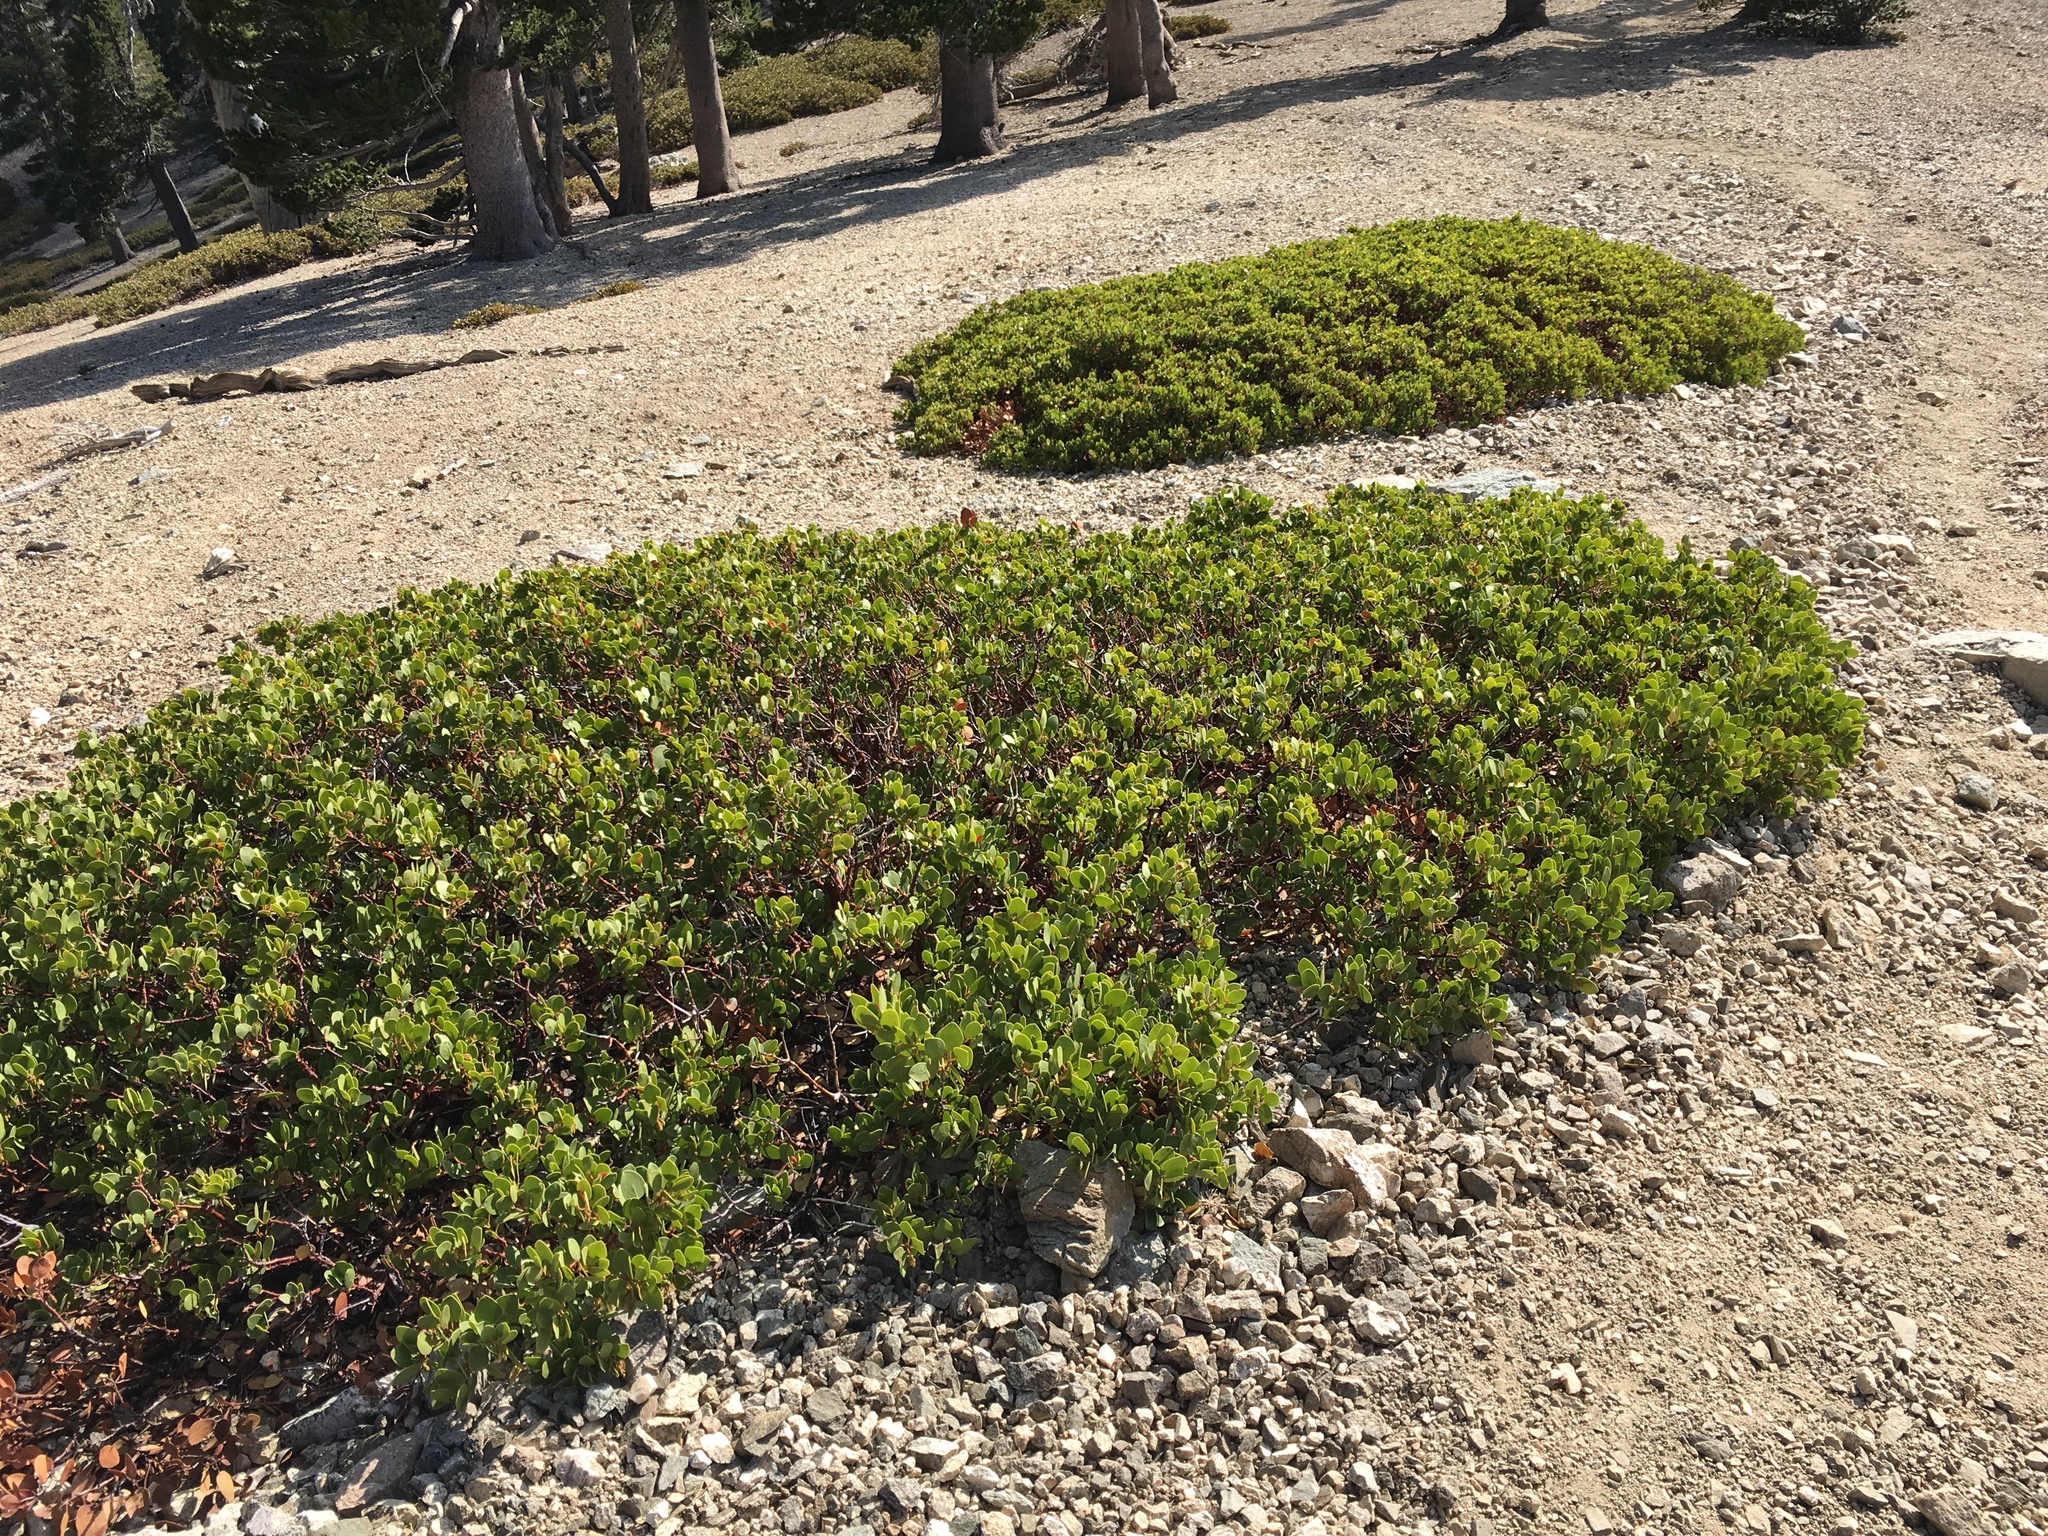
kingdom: Plantae
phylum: Tracheophyta
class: Magnoliopsida
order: Ericales
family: Ericaceae
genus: Arctostaphylos
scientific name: Arctostaphylos parryana
